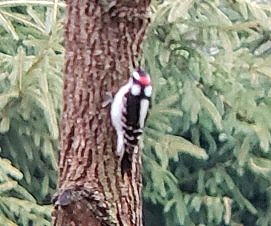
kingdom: Animalia
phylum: Chordata
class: Aves
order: Piciformes
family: Picidae
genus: Dryobates
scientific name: Dryobates pubescens
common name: Downy woodpecker
